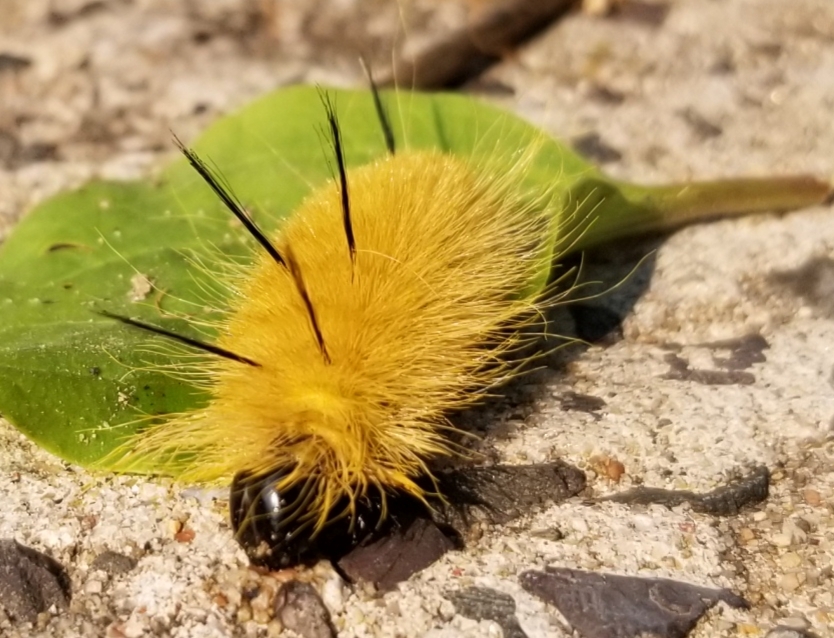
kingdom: Animalia
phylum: Arthropoda
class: Insecta
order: Lepidoptera
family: Noctuidae
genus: Acronicta
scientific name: Acronicta americana
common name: American dagger
